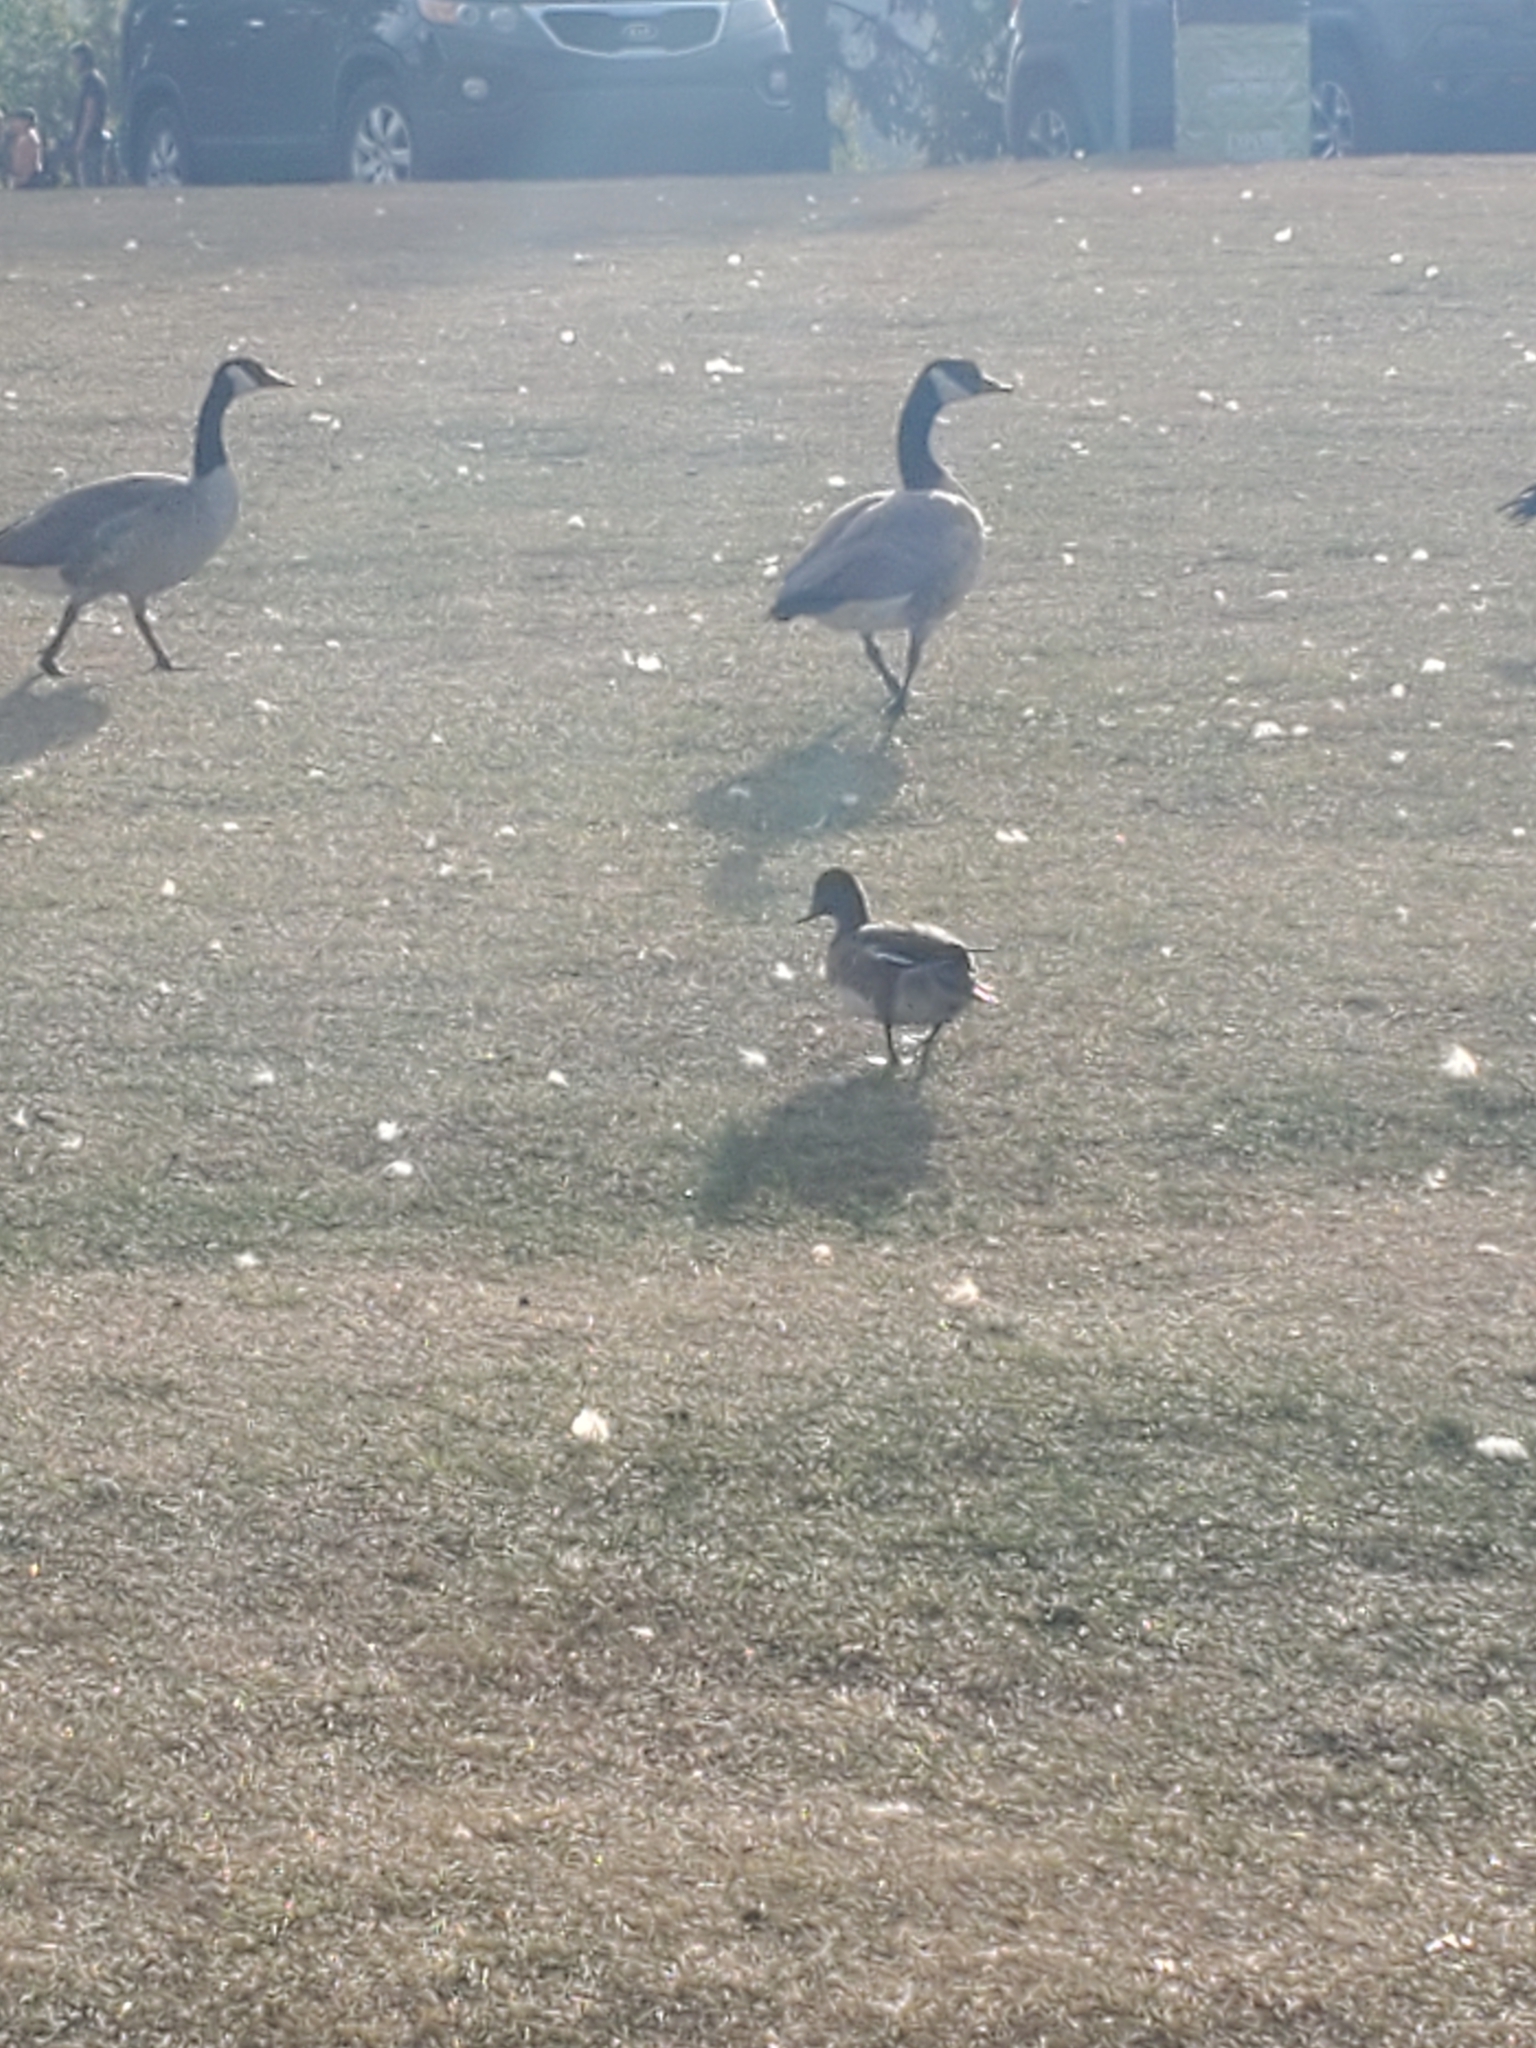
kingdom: Animalia
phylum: Chordata
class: Aves
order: Anseriformes
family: Anatidae
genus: Branta
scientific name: Branta canadensis
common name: Canada goose
